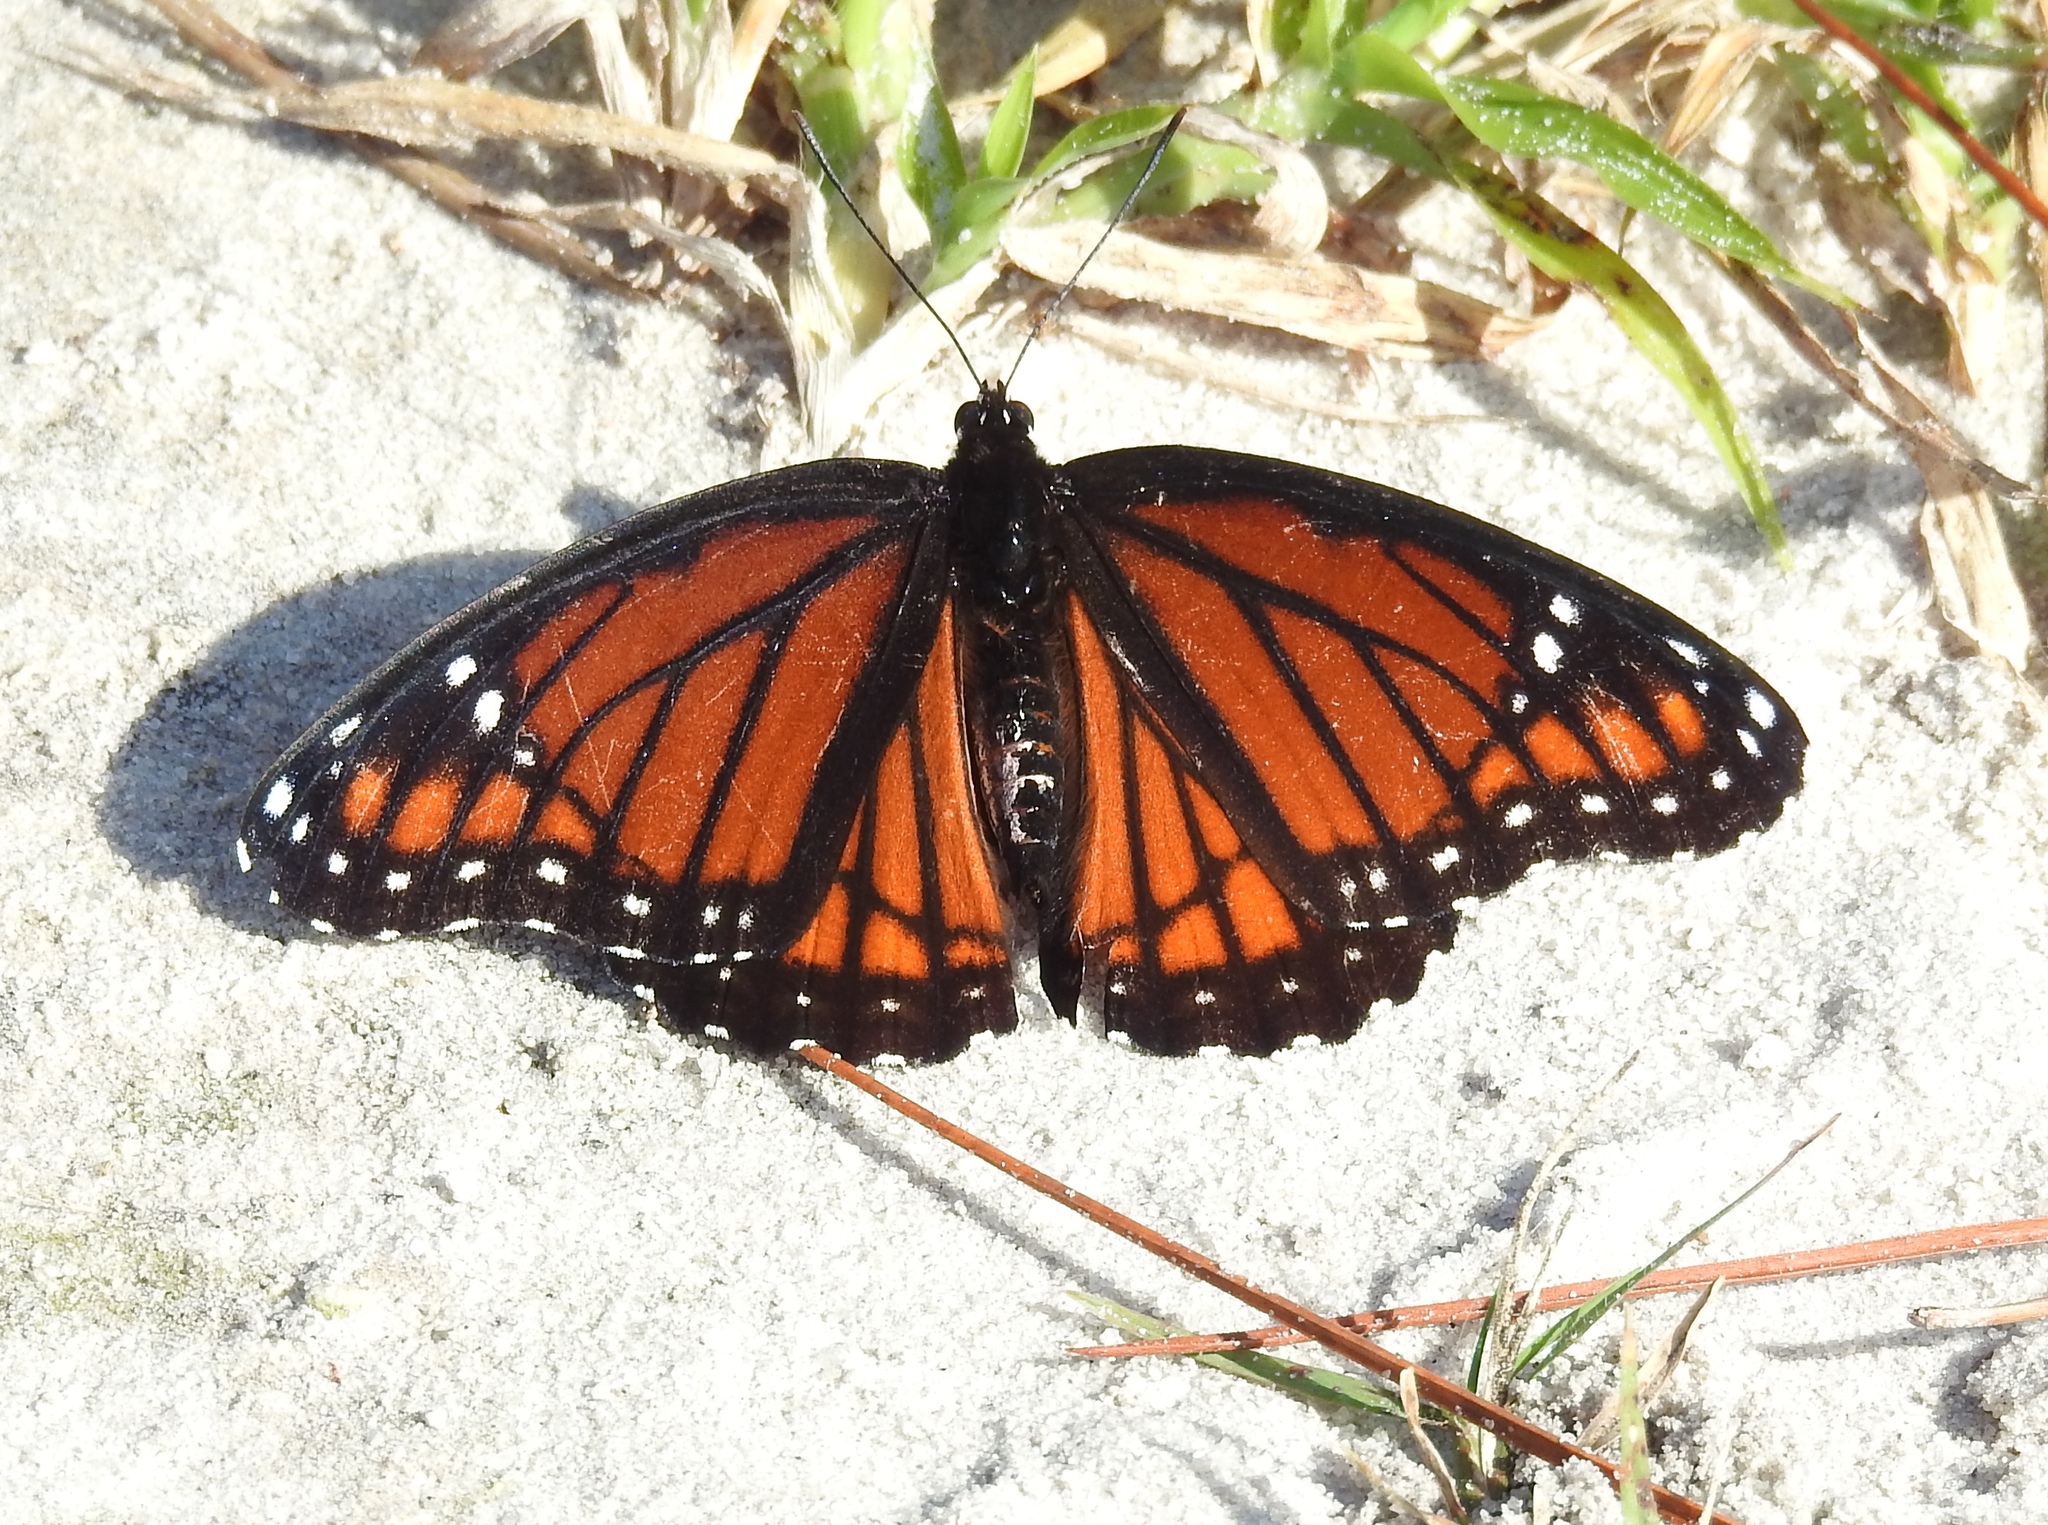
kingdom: Animalia
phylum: Arthropoda
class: Insecta
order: Lepidoptera
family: Nymphalidae
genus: Limenitis
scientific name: Limenitis archippus
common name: Viceroy
